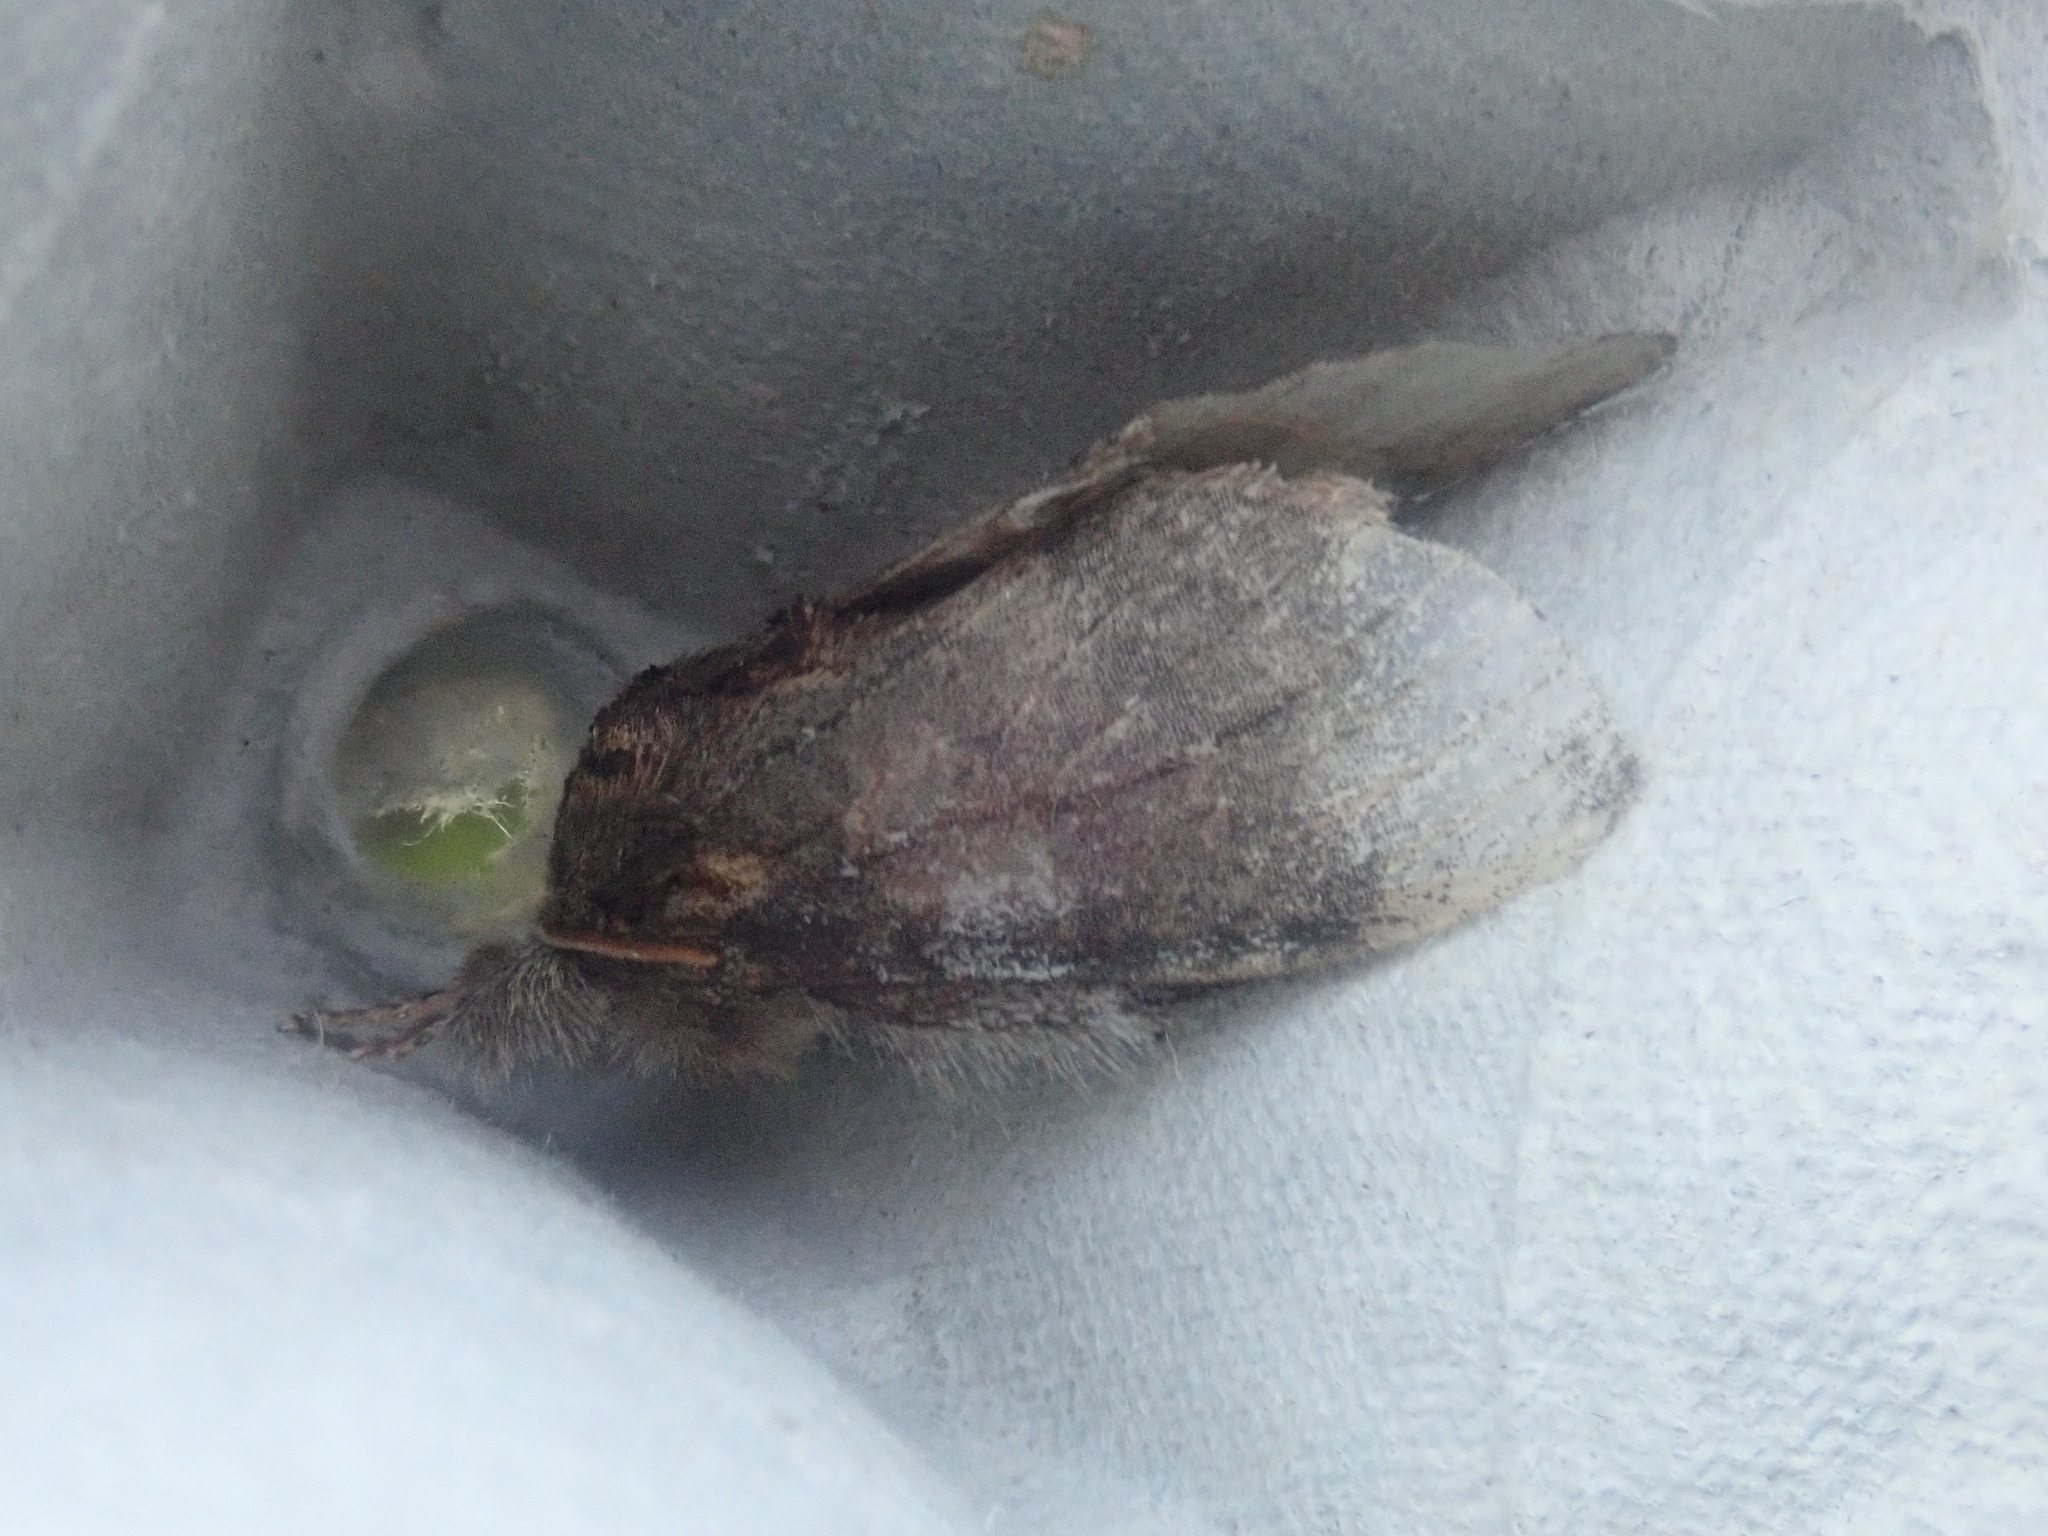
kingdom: Animalia
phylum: Arthropoda
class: Insecta
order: Lepidoptera
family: Notodontidae
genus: Peridea
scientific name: Peridea angulosa
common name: Angulose prominent
